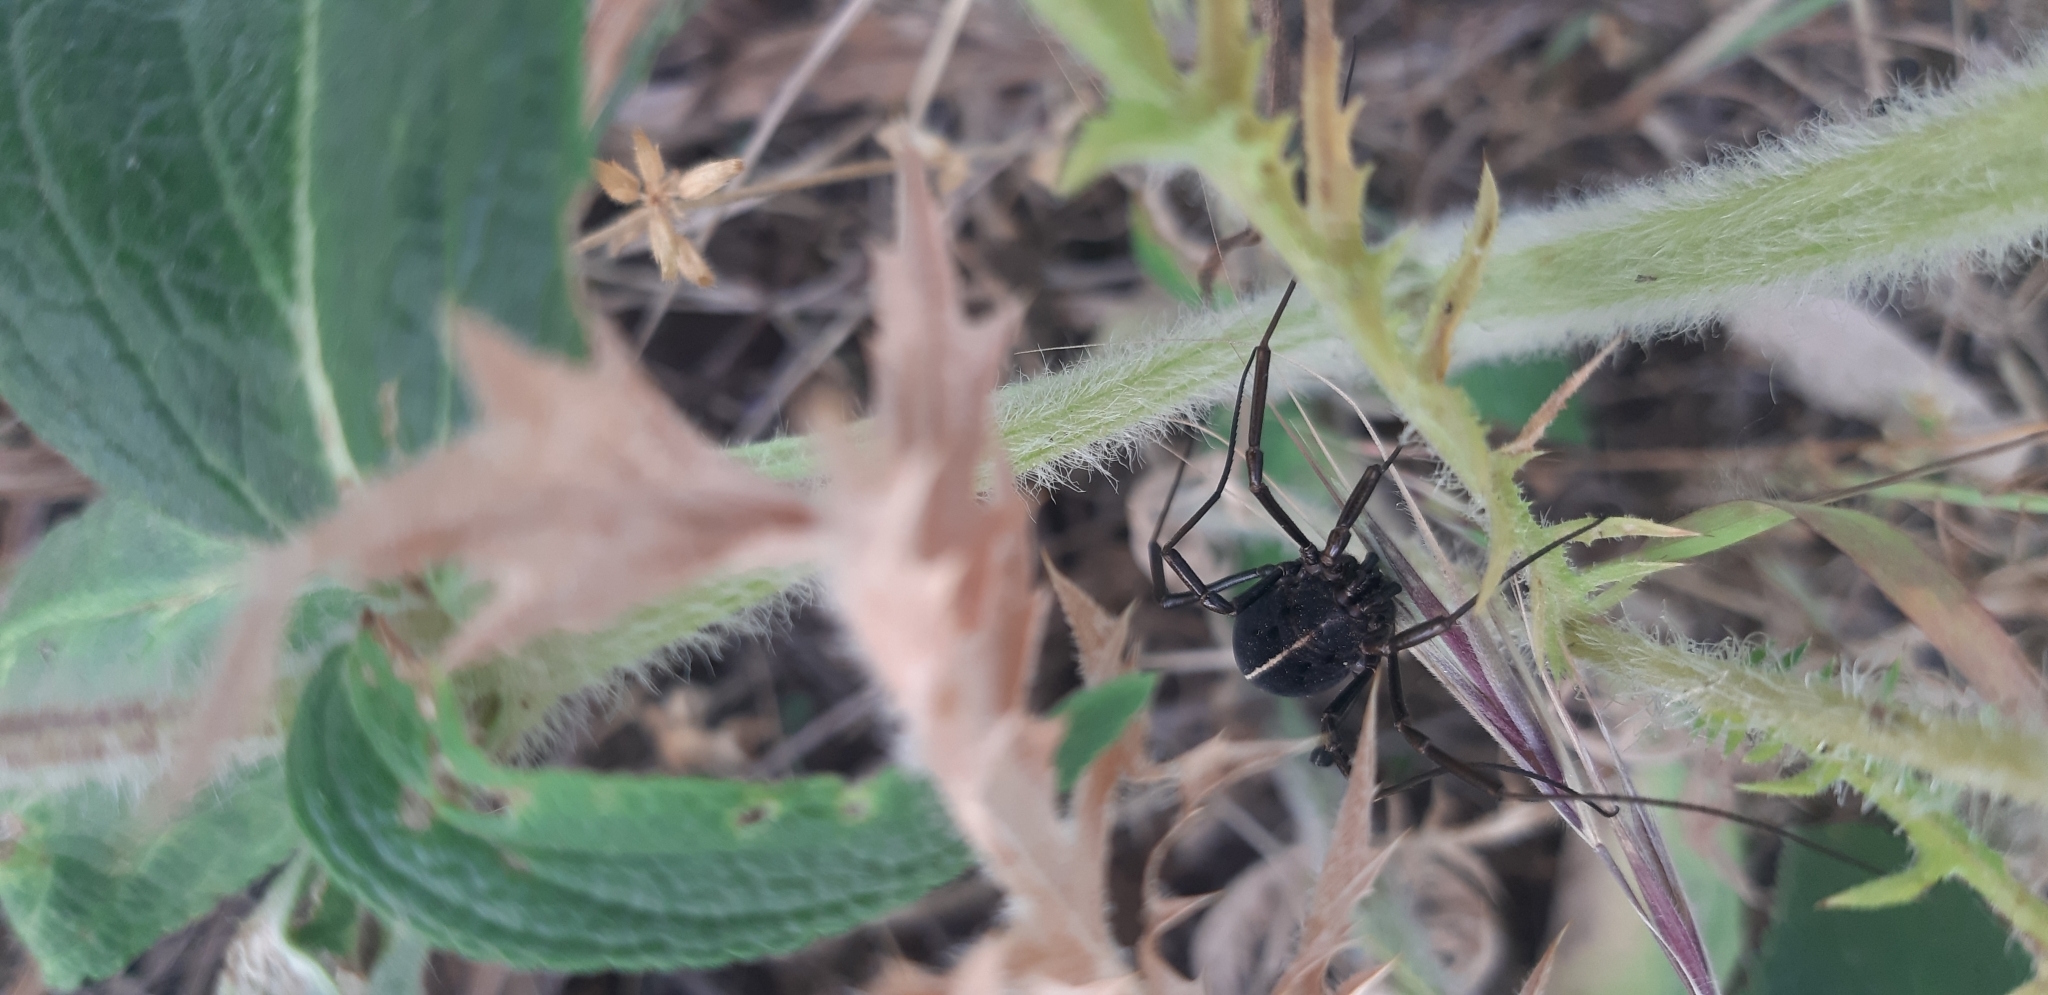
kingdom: Animalia
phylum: Arthropoda
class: Arachnida
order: Opiliones
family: Phalangiidae
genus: Zachaeus
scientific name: Zachaeus crista
